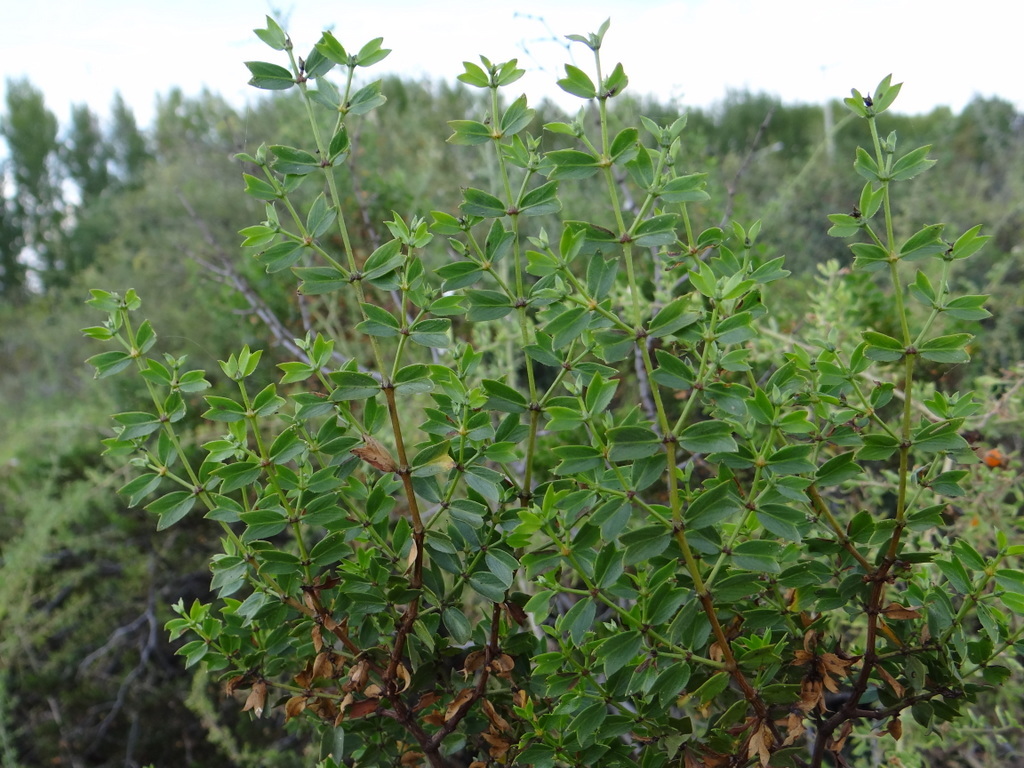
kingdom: Plantae
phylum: Tracheophyta
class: Magnoliopsida
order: Zygophyllales
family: Zygophyllaceae
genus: Larrea
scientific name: Larrea cuneifolia
